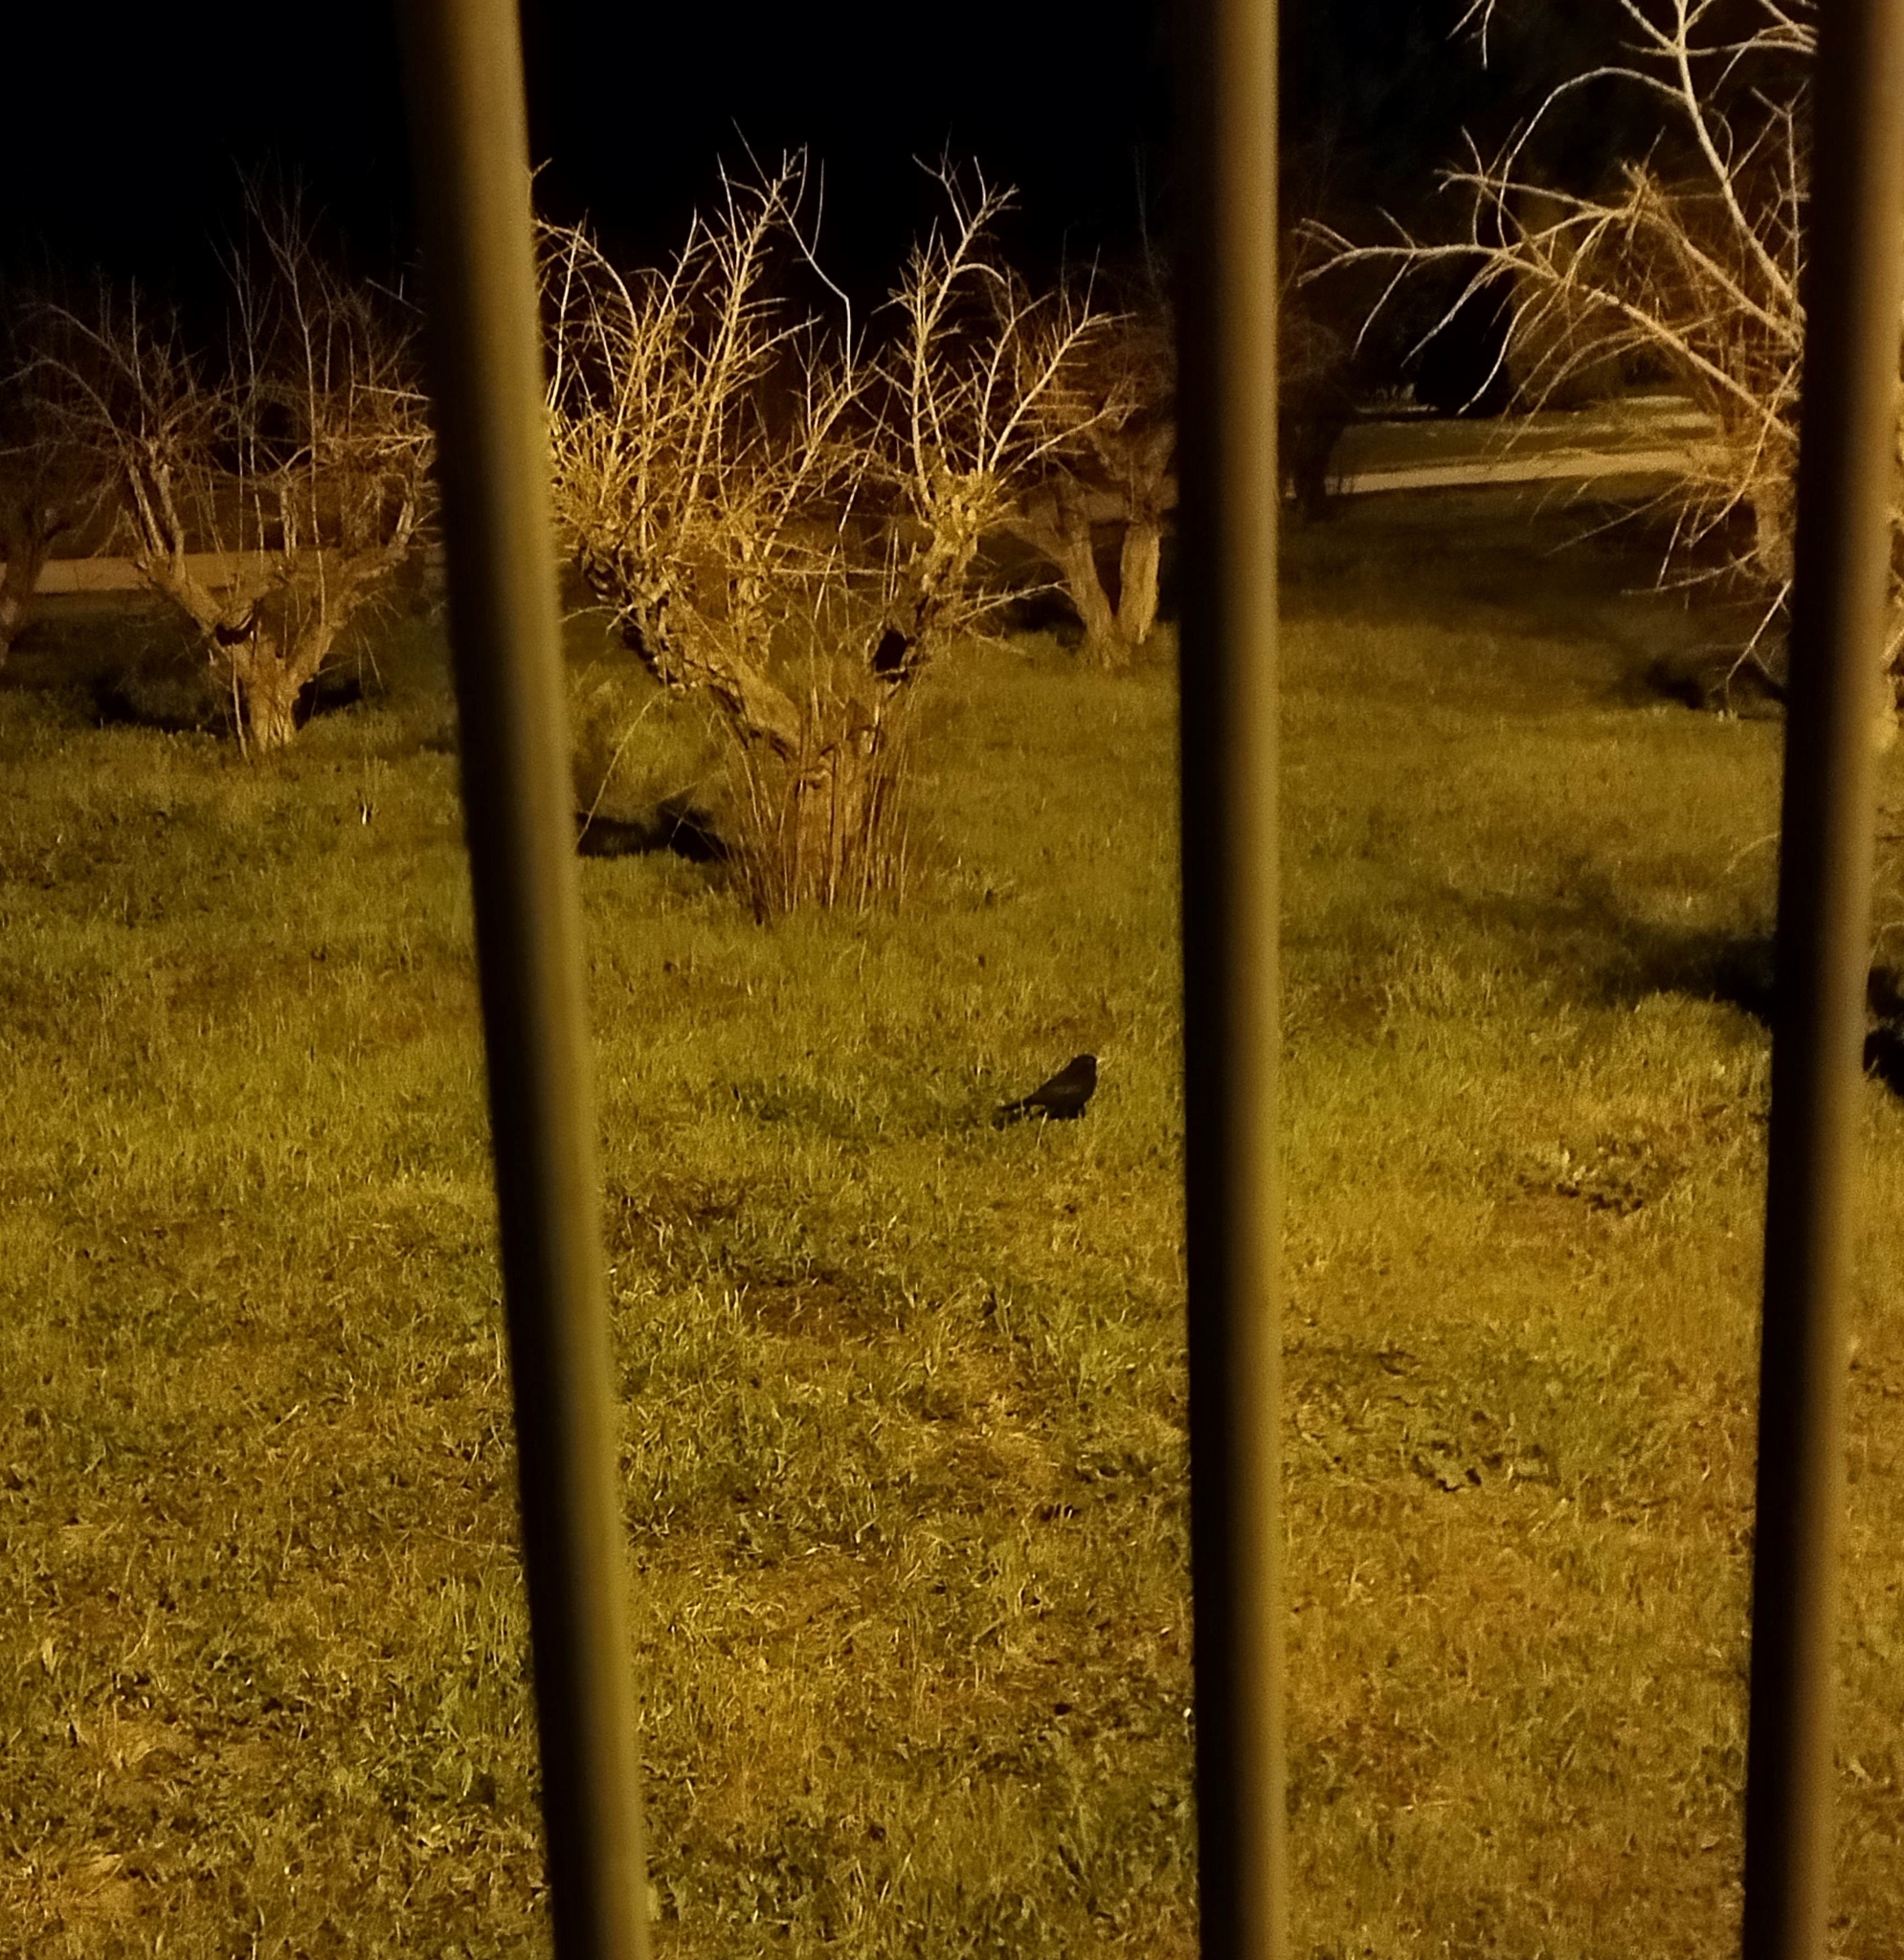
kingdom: Animalia
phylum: Chordata
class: Aves
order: Passeriformes
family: Turdidae
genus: Turdus
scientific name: Turdus merula
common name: Common blackbird
